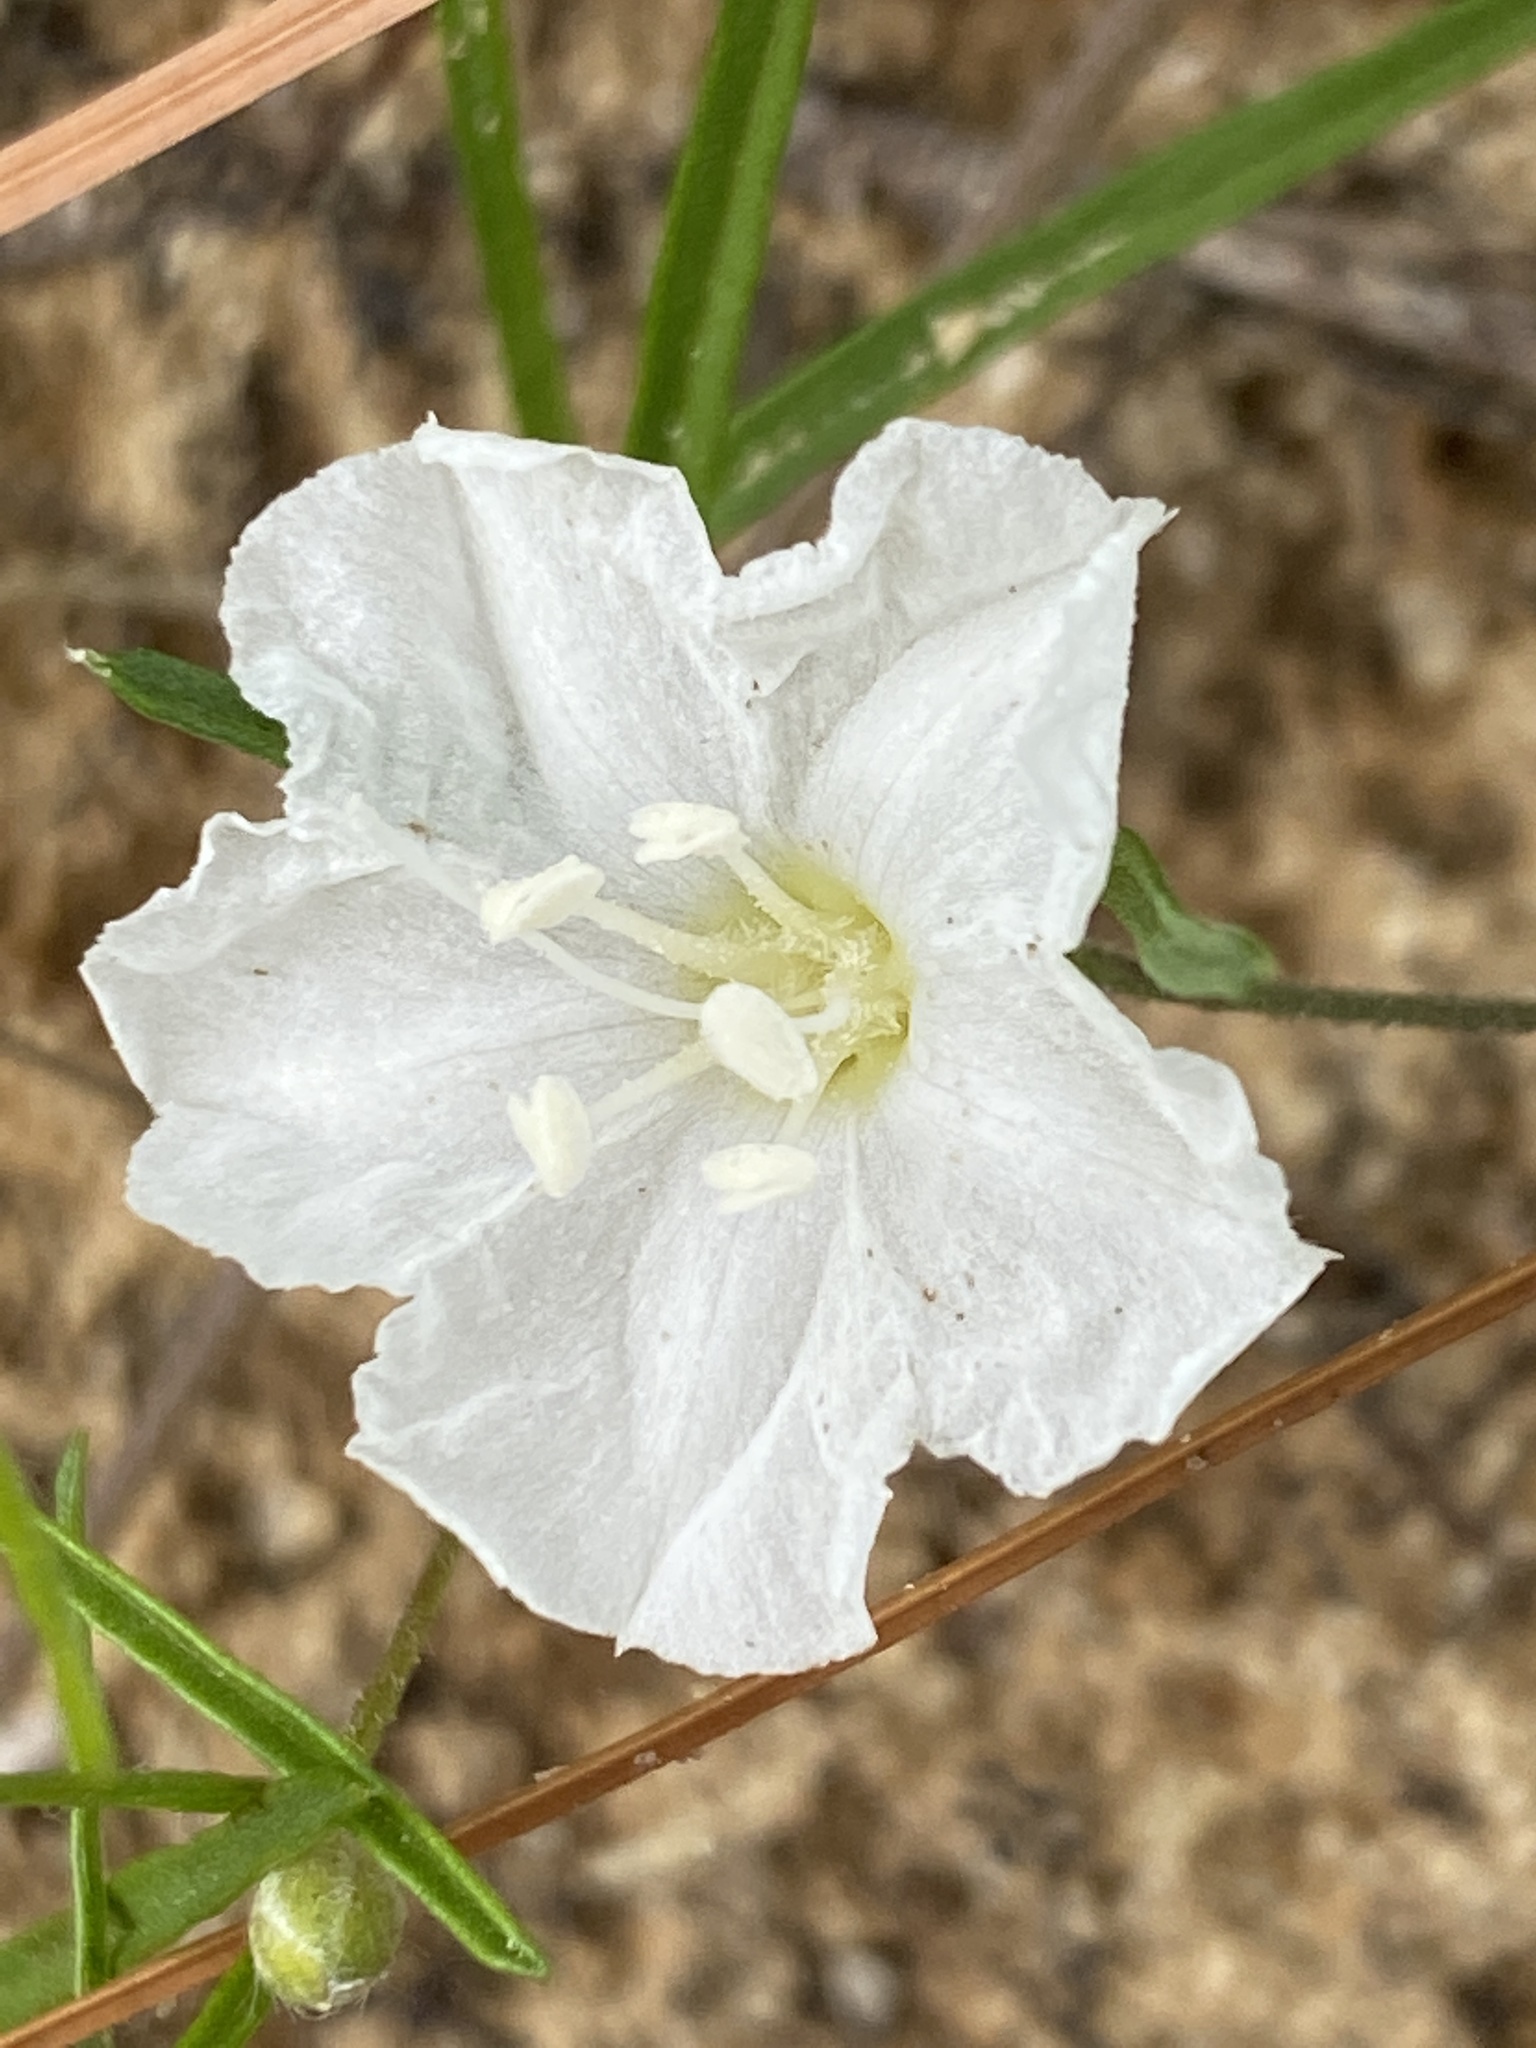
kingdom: Plantae
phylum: Tracheophyta
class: Magnoliopsida
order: Solanales
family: Convolvulaceae
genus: Stylisma
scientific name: Stylisma pickeringii
